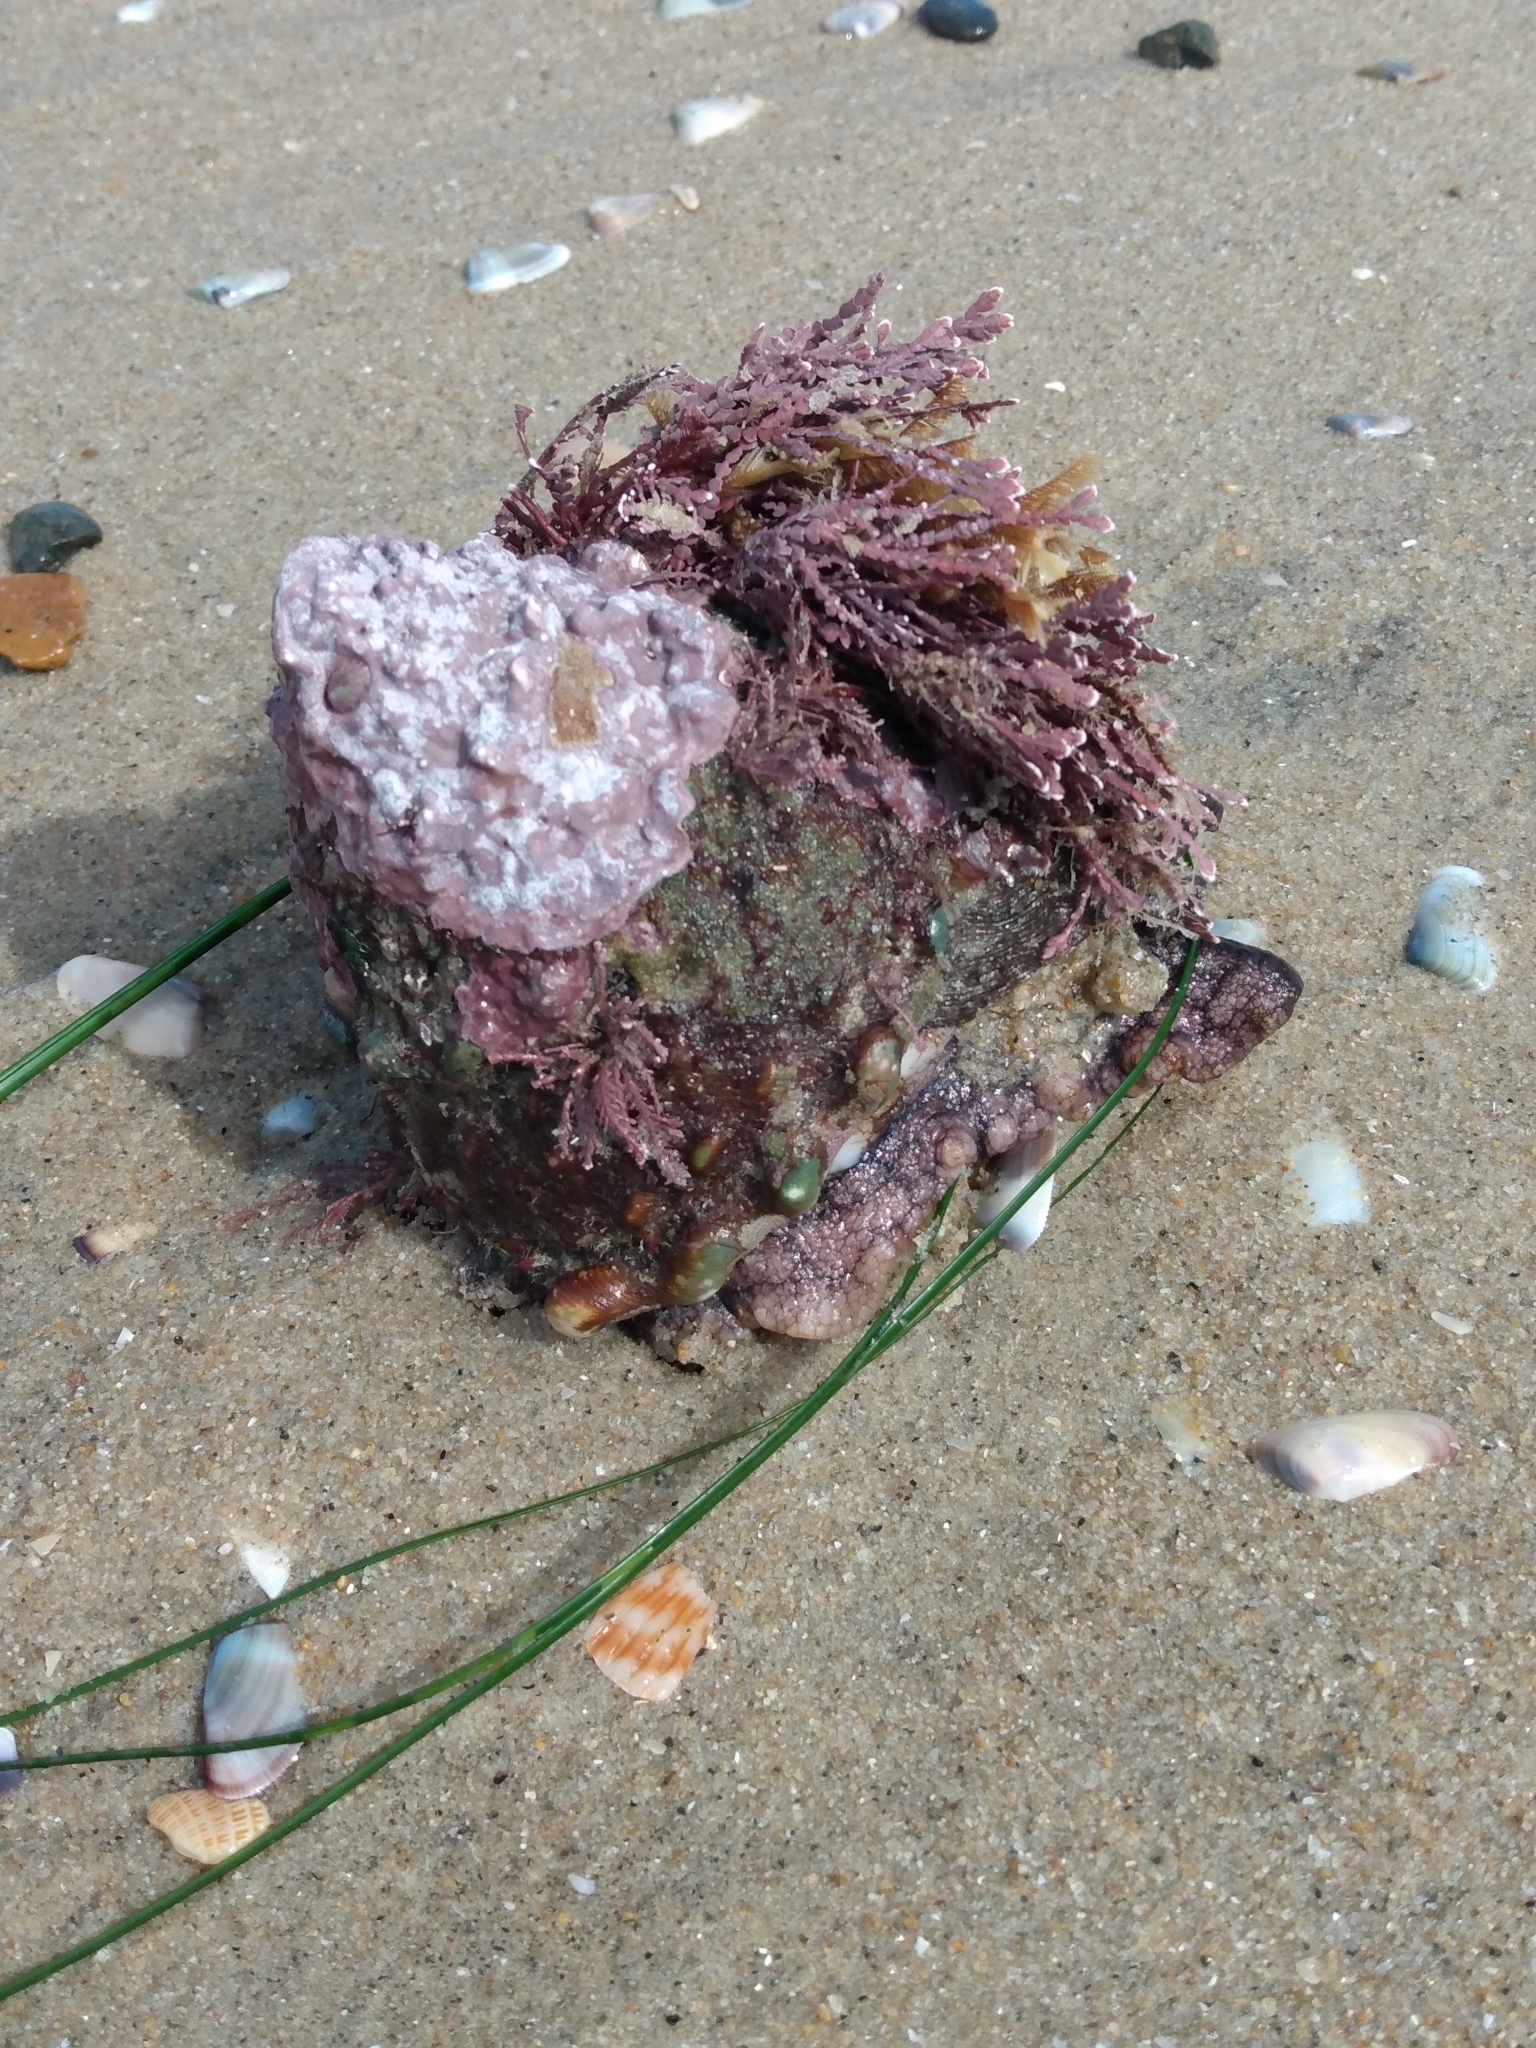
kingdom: Animalia
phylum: Mollusca
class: Gastropoda
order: Trochida
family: Turbinidae
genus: Megastraea
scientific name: Megastraea undosa
